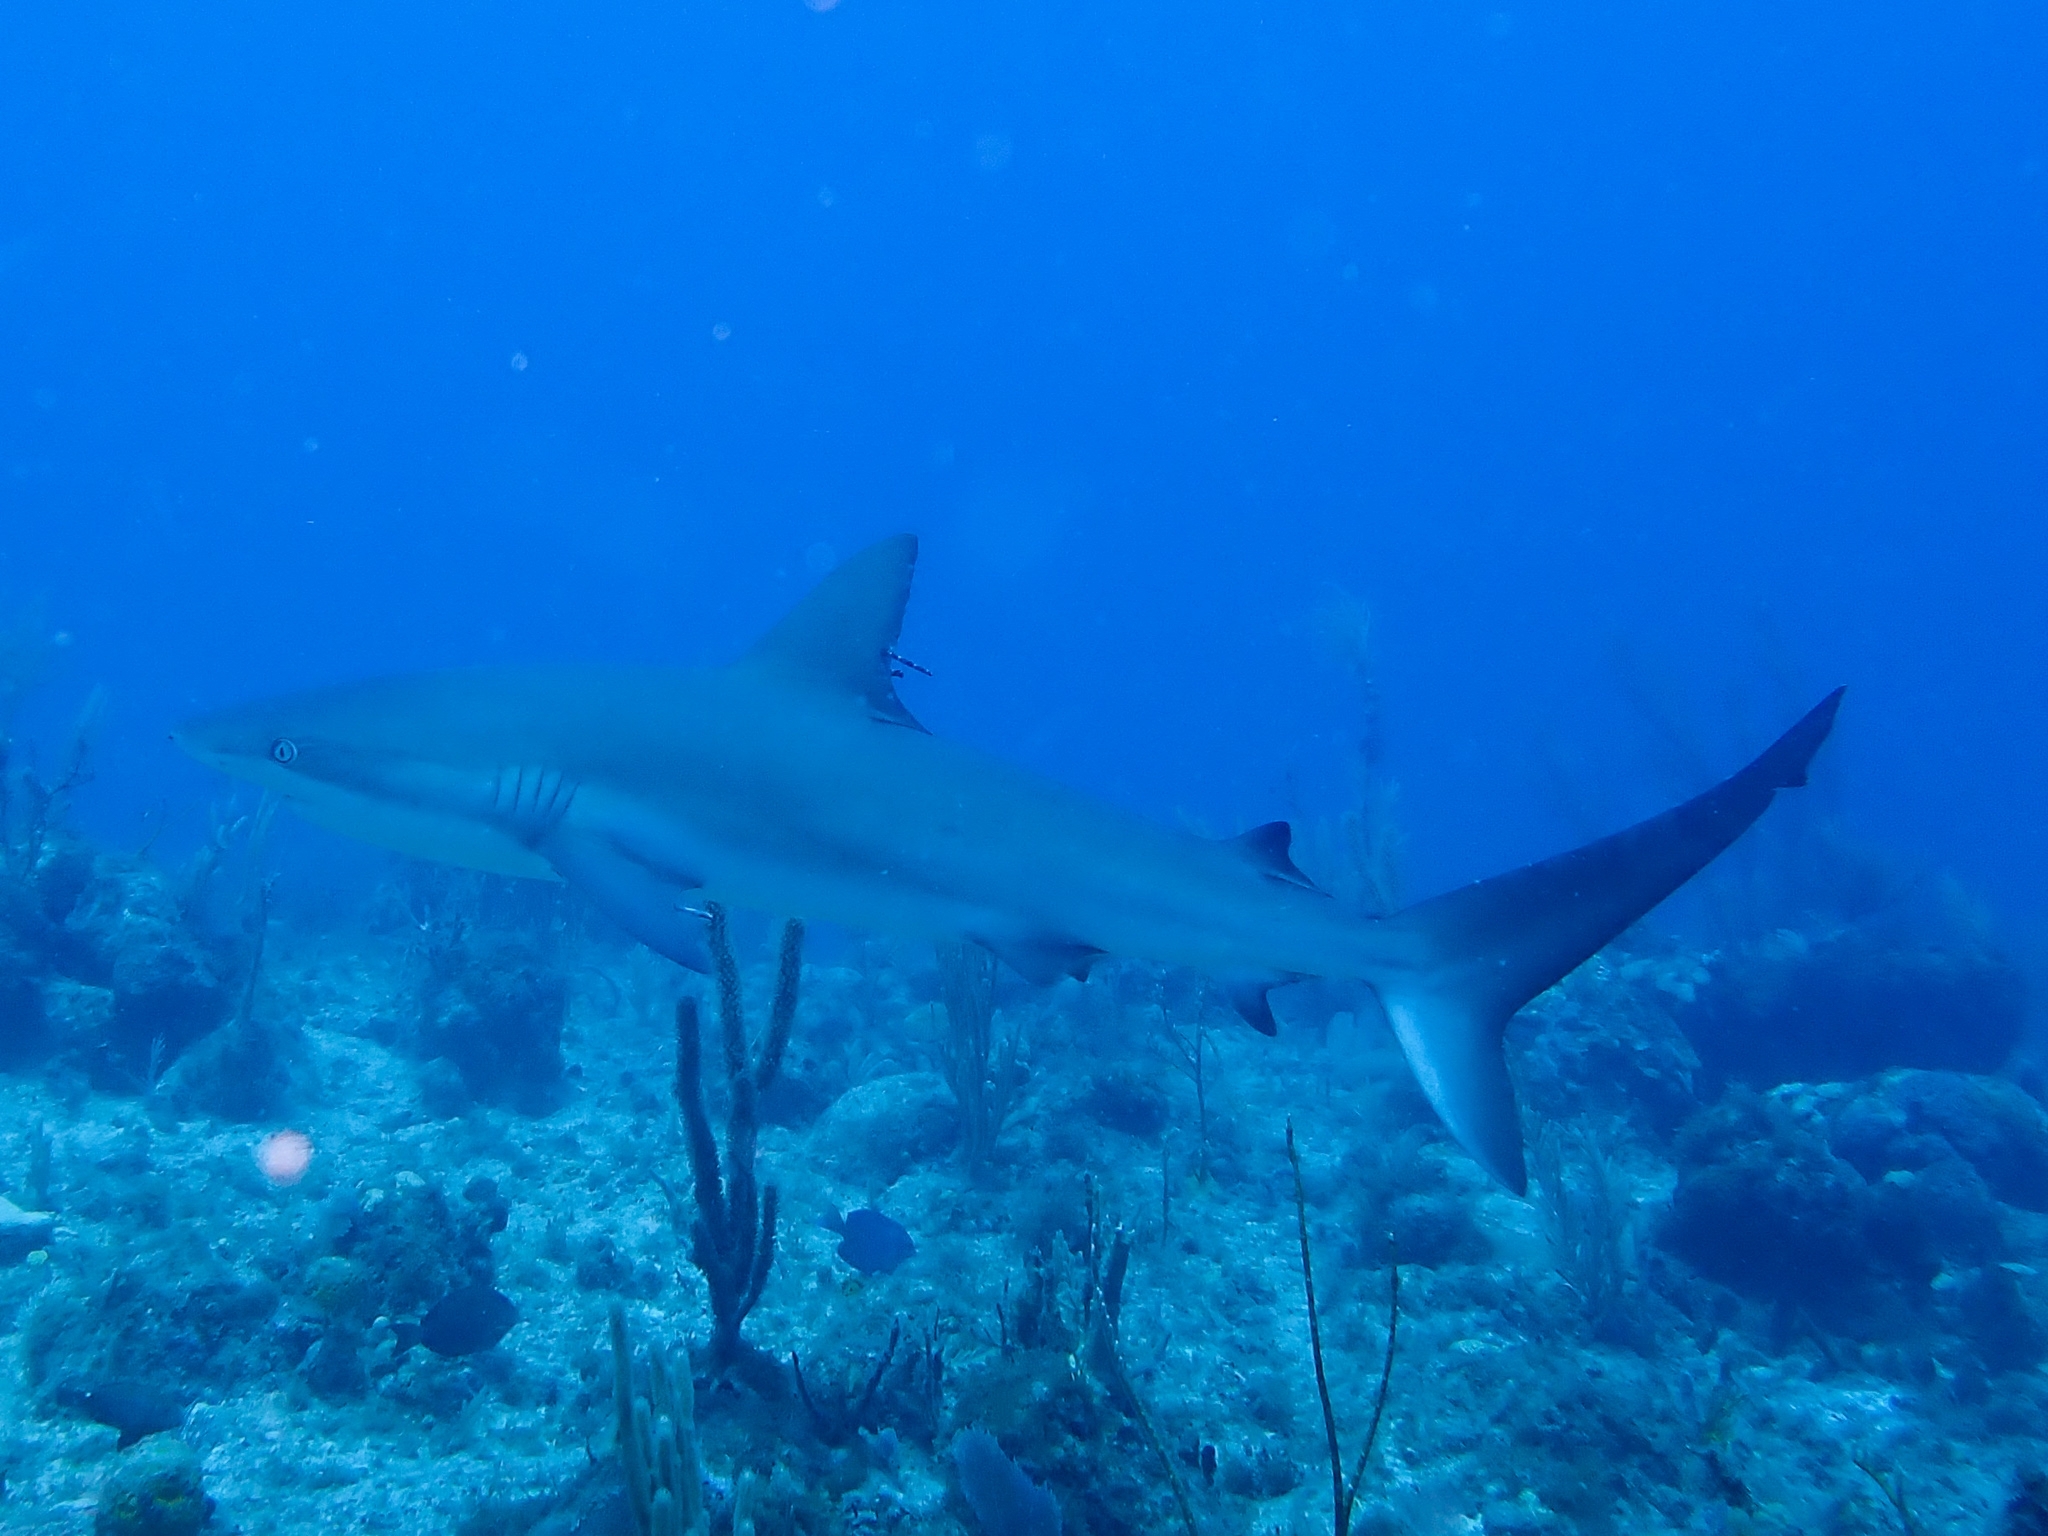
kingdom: Animalia
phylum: Chordata
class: Elasmobranchii
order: Carcharhiniformes
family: Carcharhinidae
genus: Carcharhinus
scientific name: Carcharhinus perezii
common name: Reef shark
